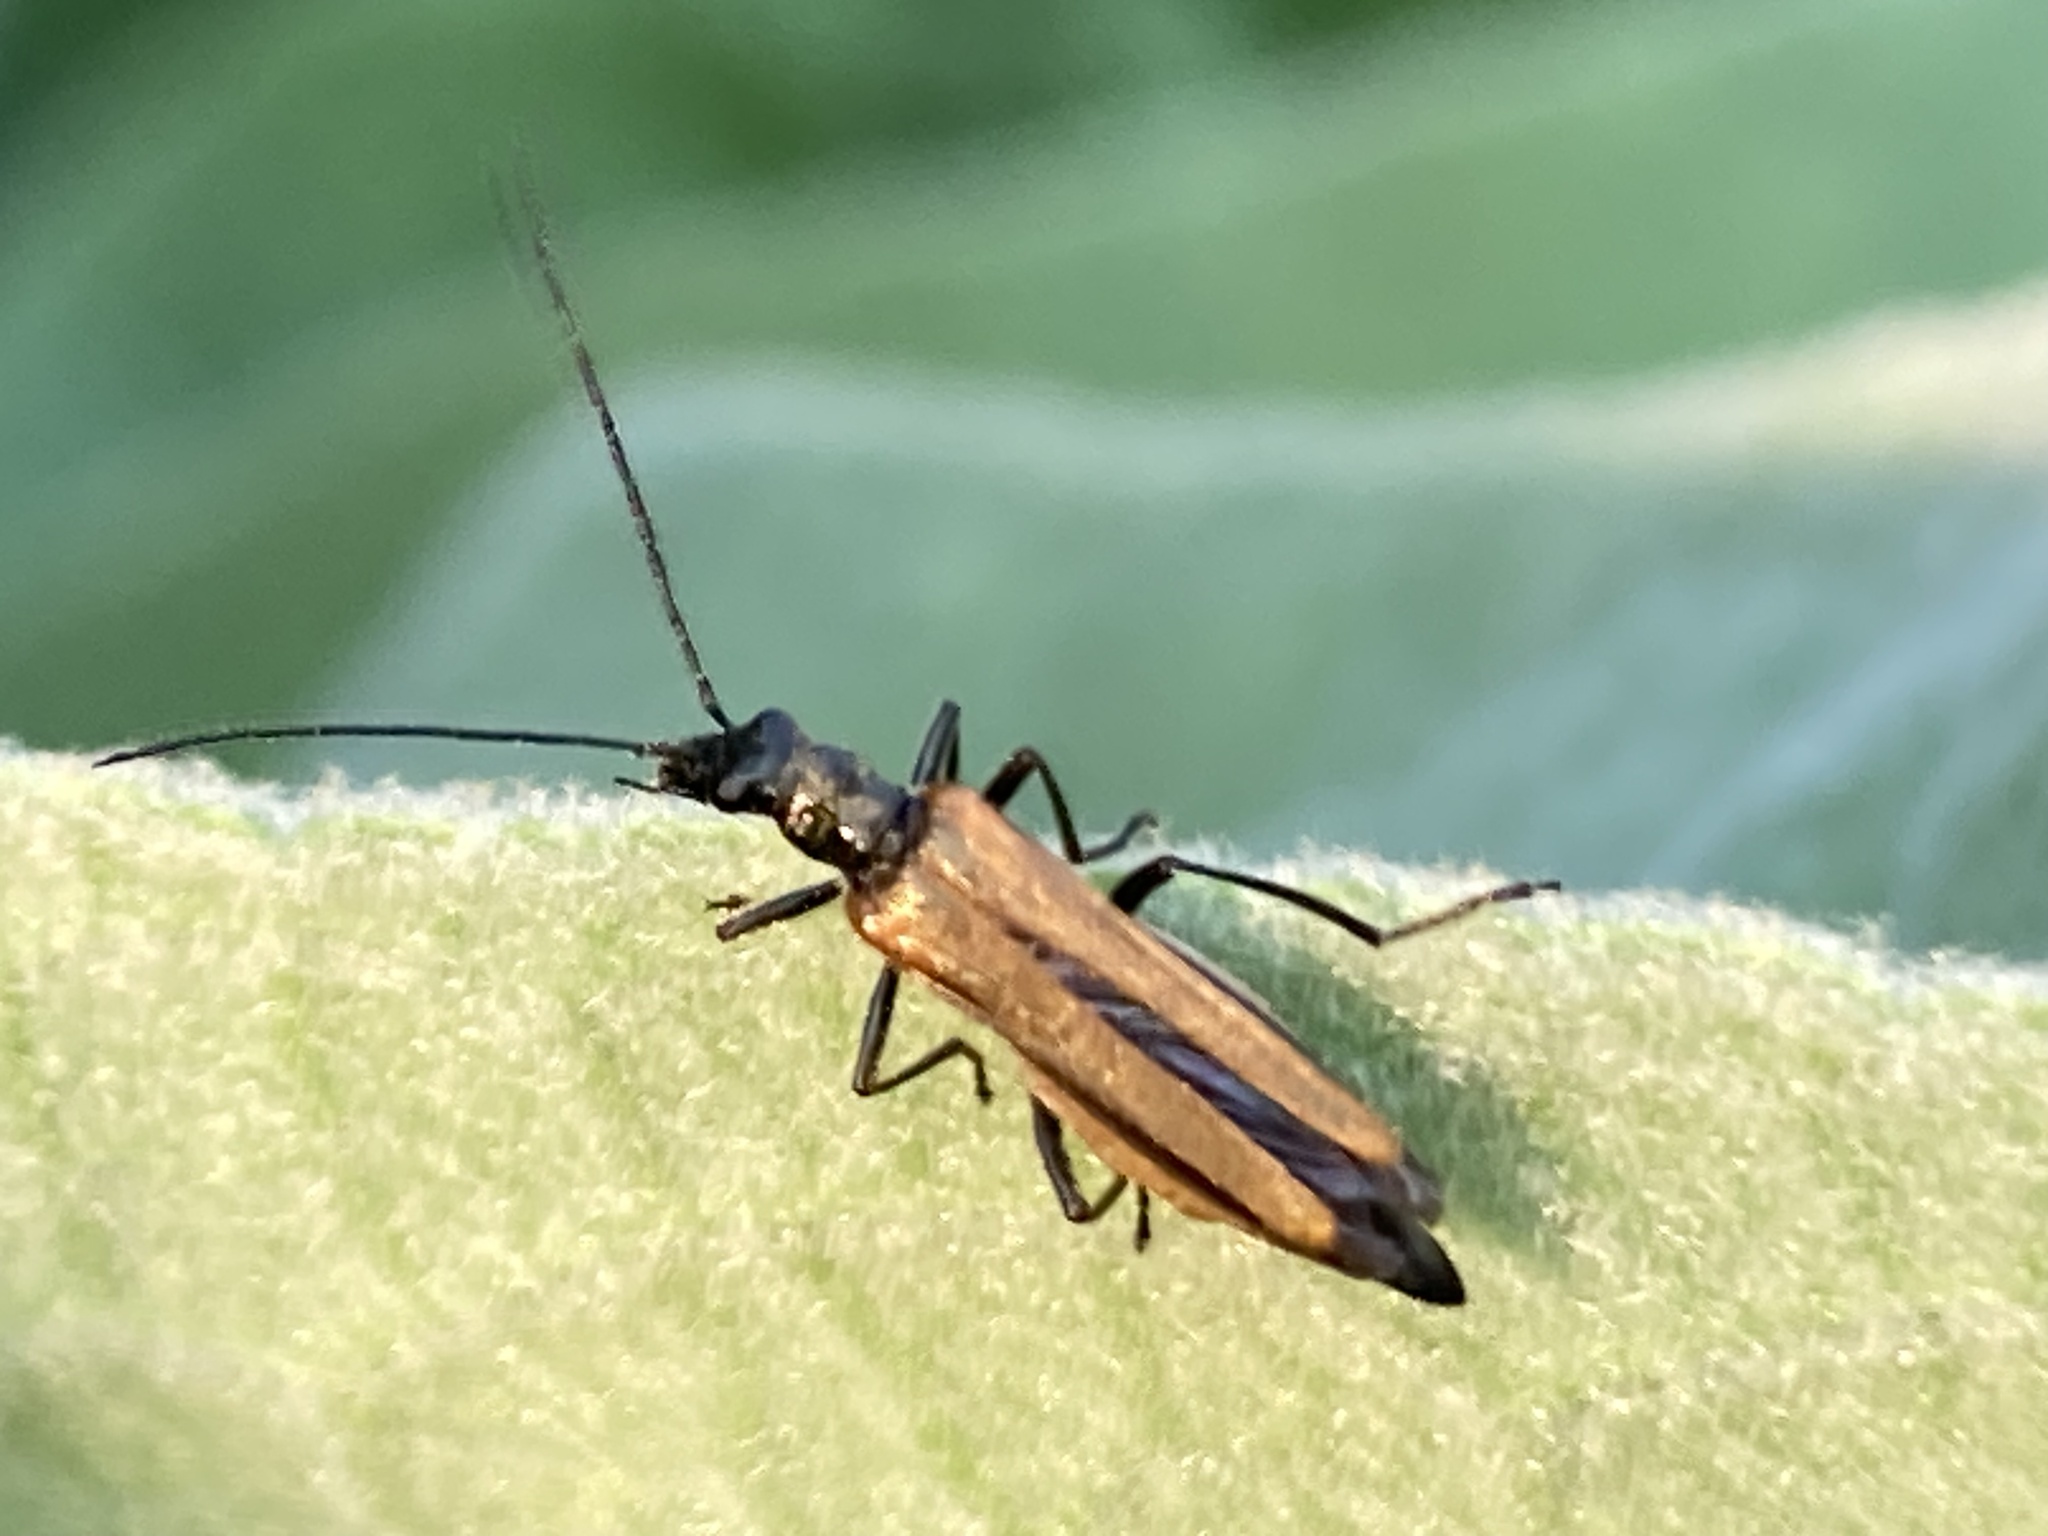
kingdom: Animalia
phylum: Arthropoda
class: Insecta
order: Coleoptera
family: Oedemeridae
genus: Oedemera
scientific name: Oedemera femorata
